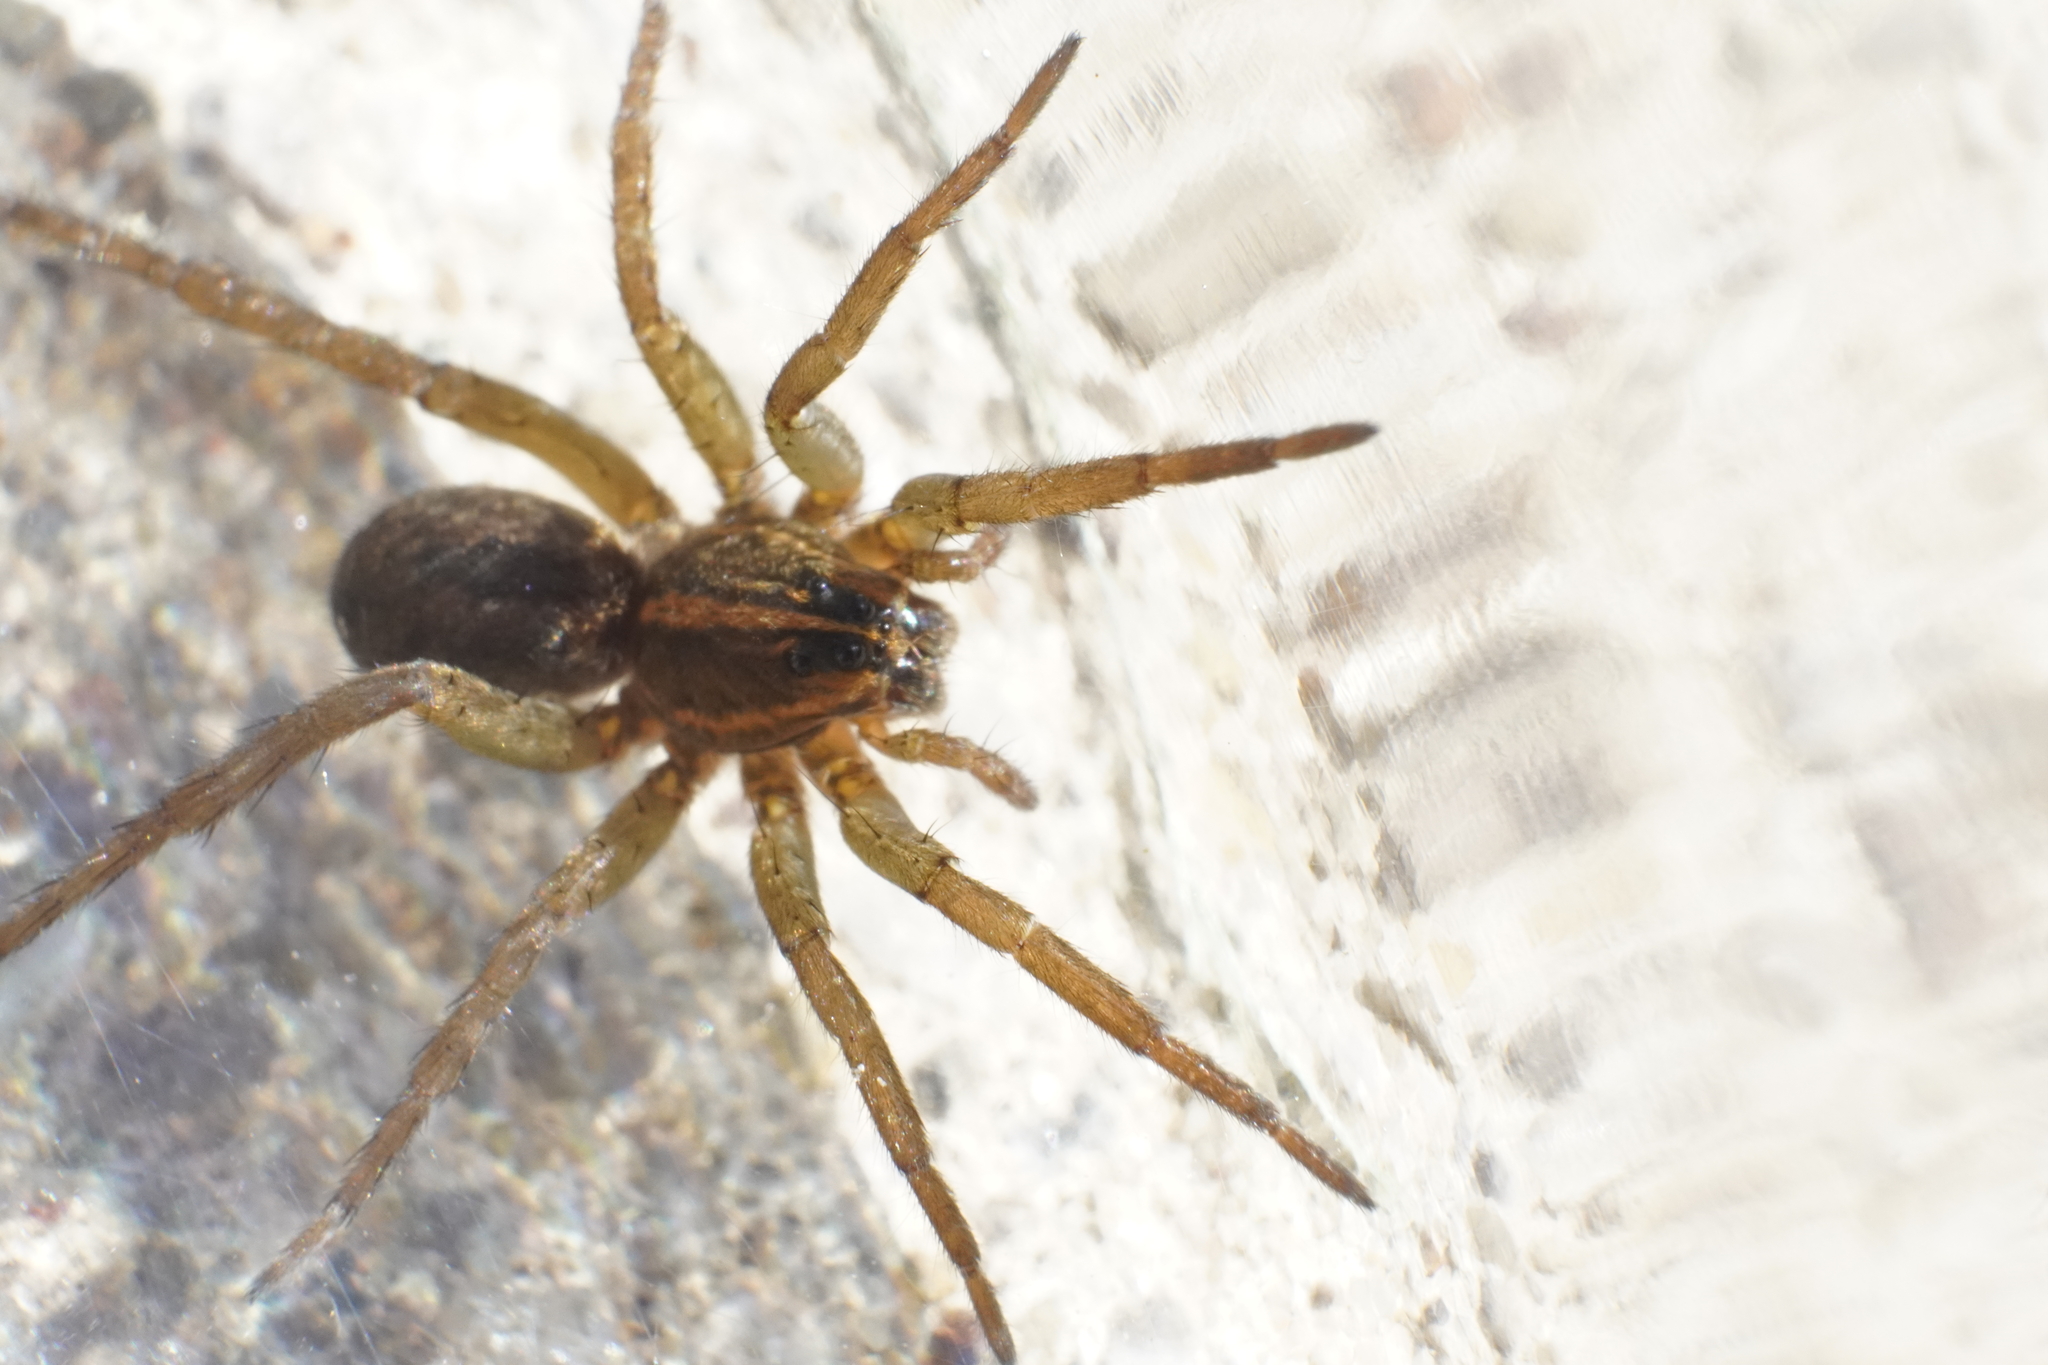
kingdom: Animalia
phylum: Arthropoda
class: Arachnida
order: Araneae
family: Lycosidae
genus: Tigrosa
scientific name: Tigrosa helluo
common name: Wetland giant wolf spider
